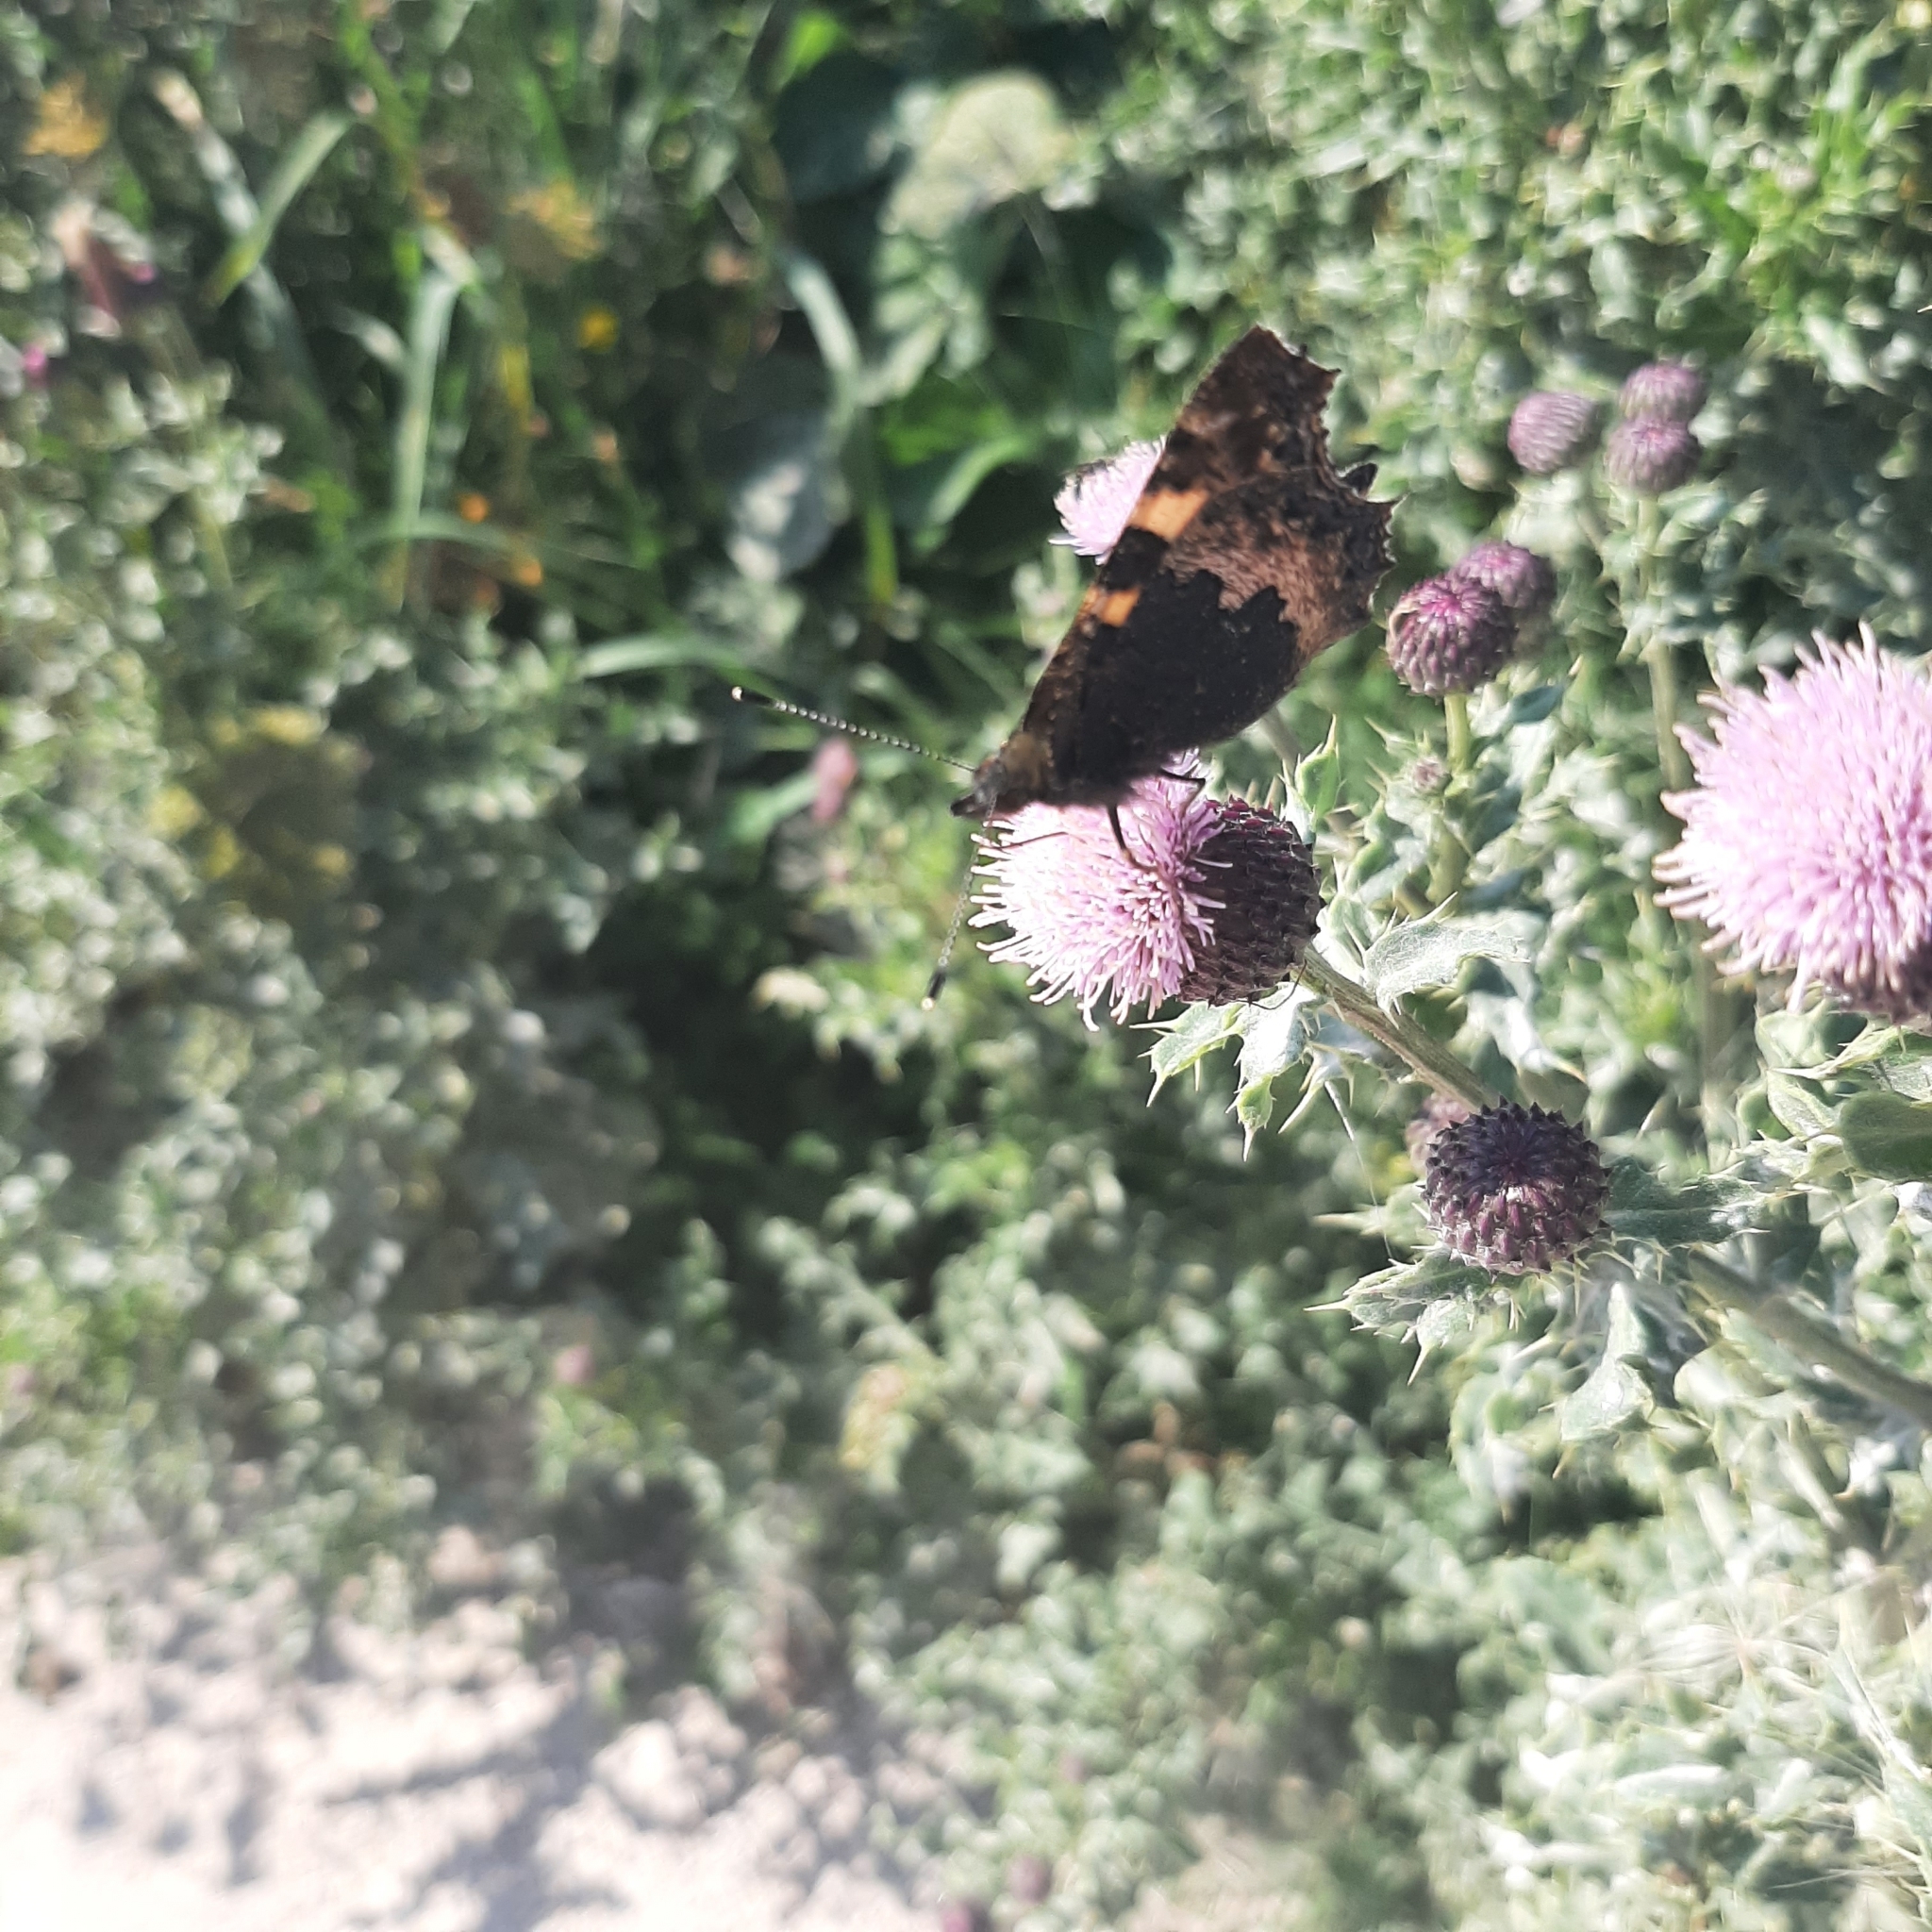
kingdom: Animalia
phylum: Arthropoda
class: Insecta
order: Lepidoptera
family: Nymphalidae
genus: Aglais
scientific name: Aglais urticae
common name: Small tortoiseshell
